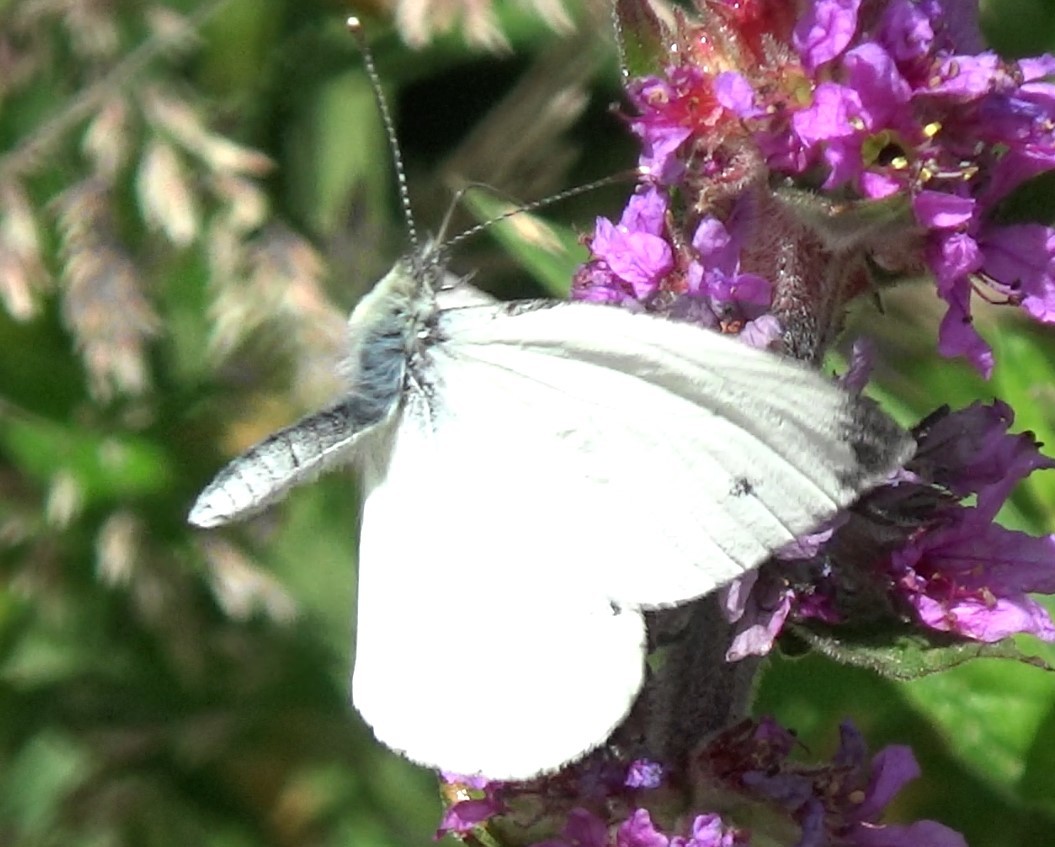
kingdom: Animalia
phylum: Arthropoda
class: Insecta
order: Lepidoptera
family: Pieridae
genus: Pieris
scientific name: Pieris napi
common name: Green-veined white
